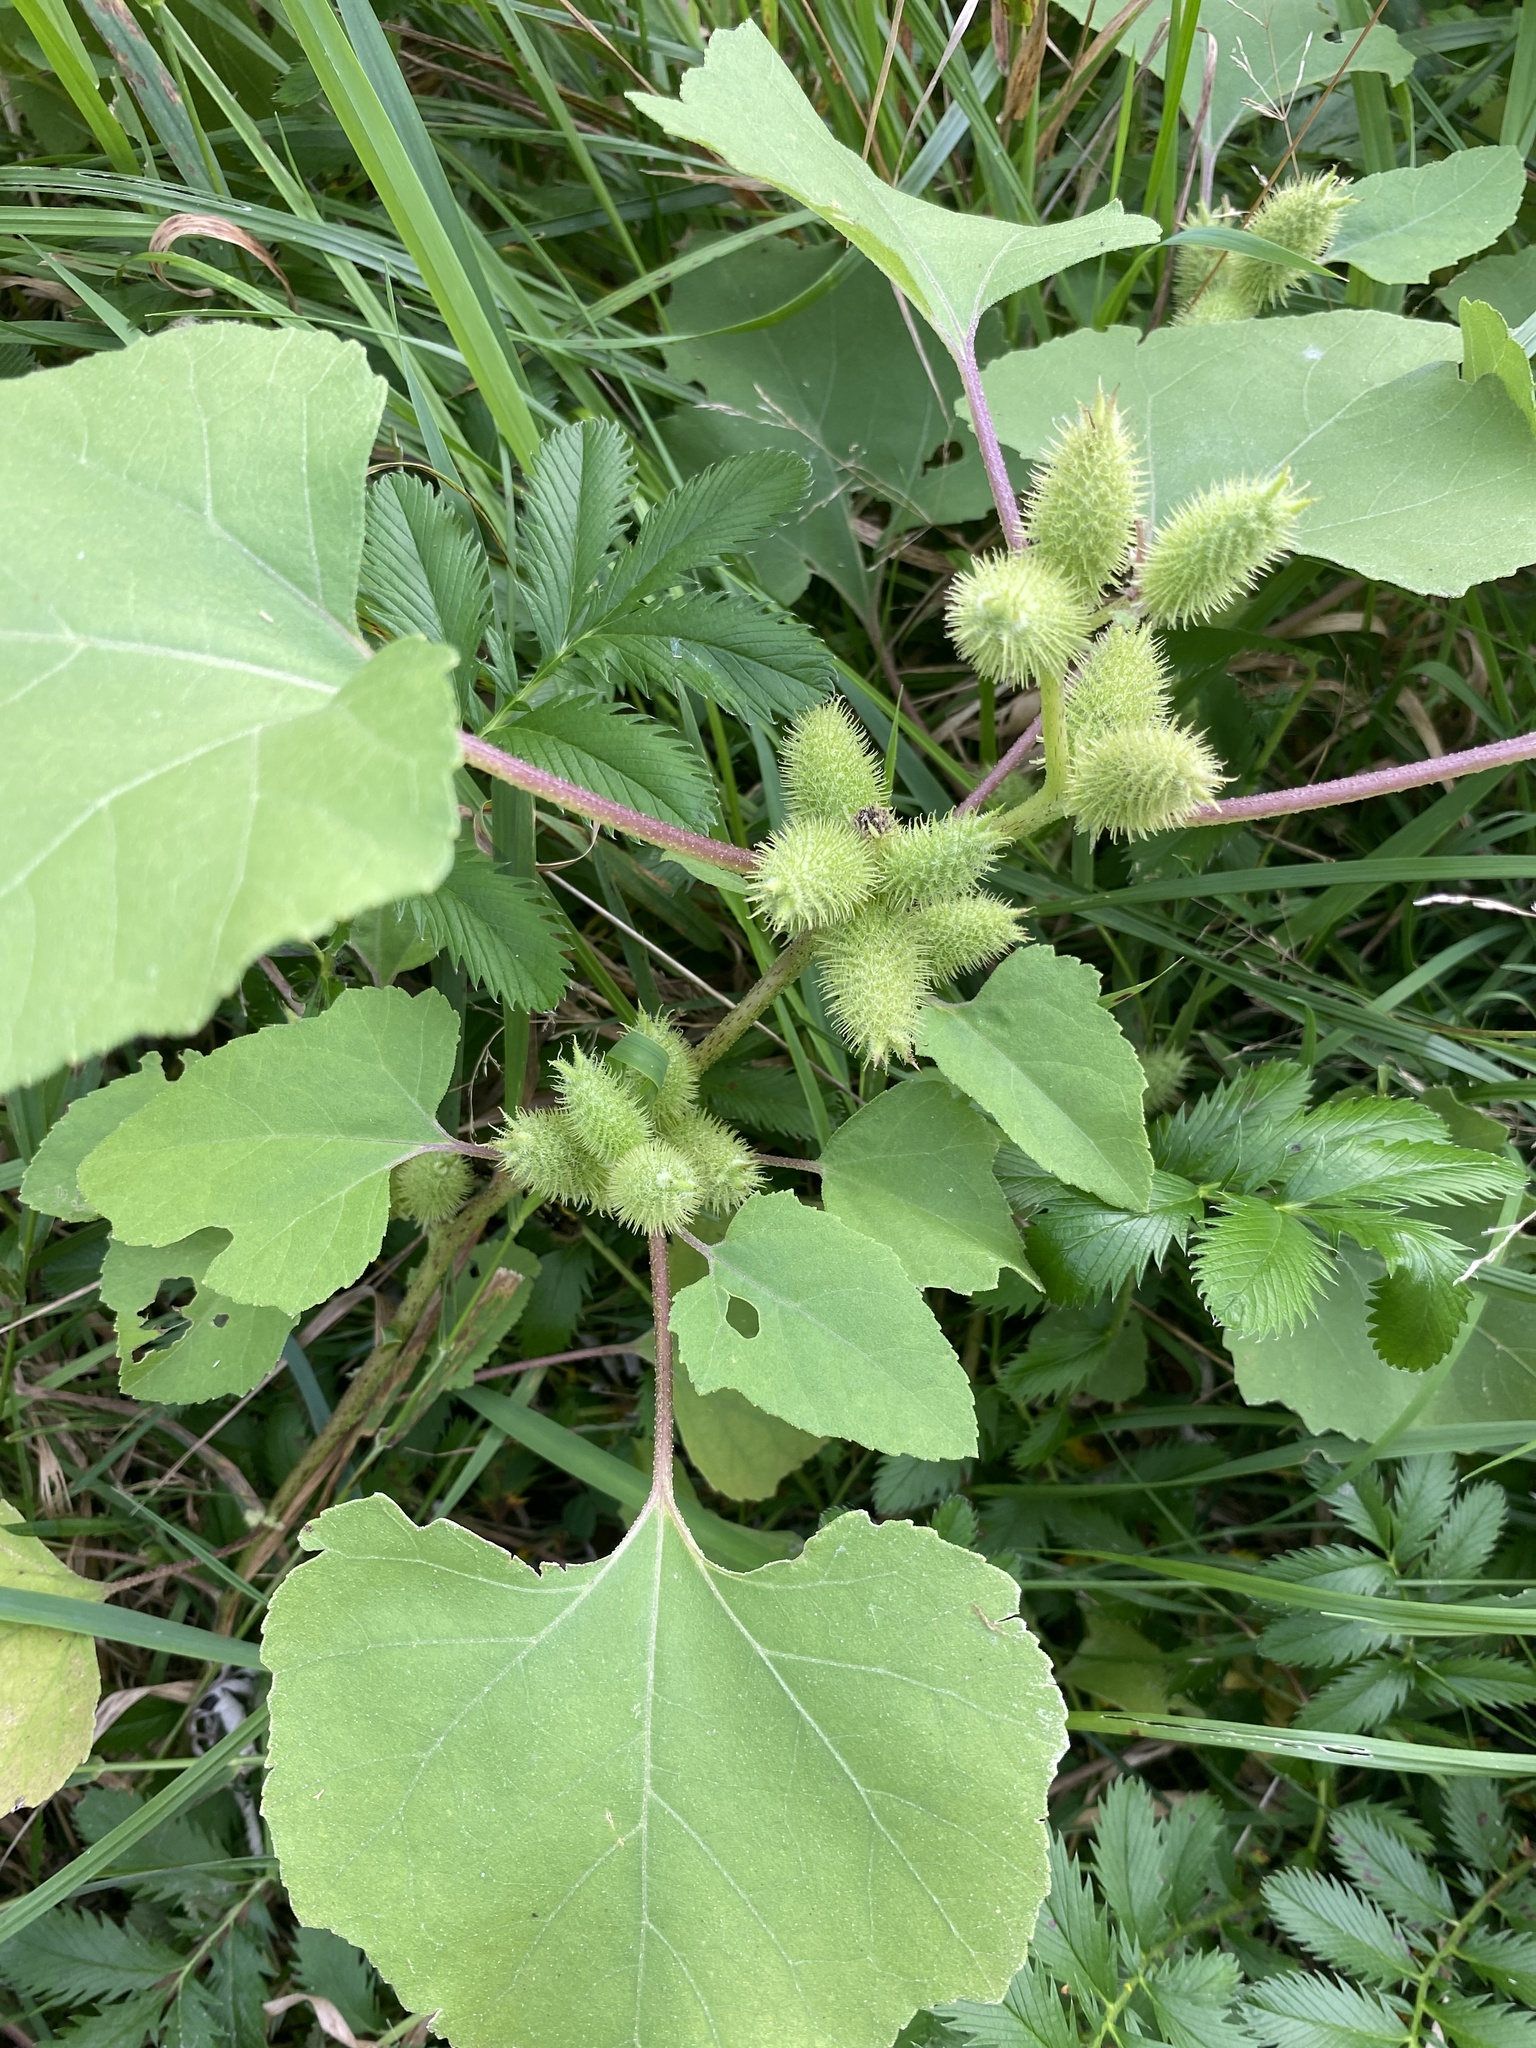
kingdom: Plantae
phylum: Tracheophyta
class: Magnoliopsida
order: Asterales
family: Asteraceae
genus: Xanthium
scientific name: Xanthium strumarium
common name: Rough cocklebur
